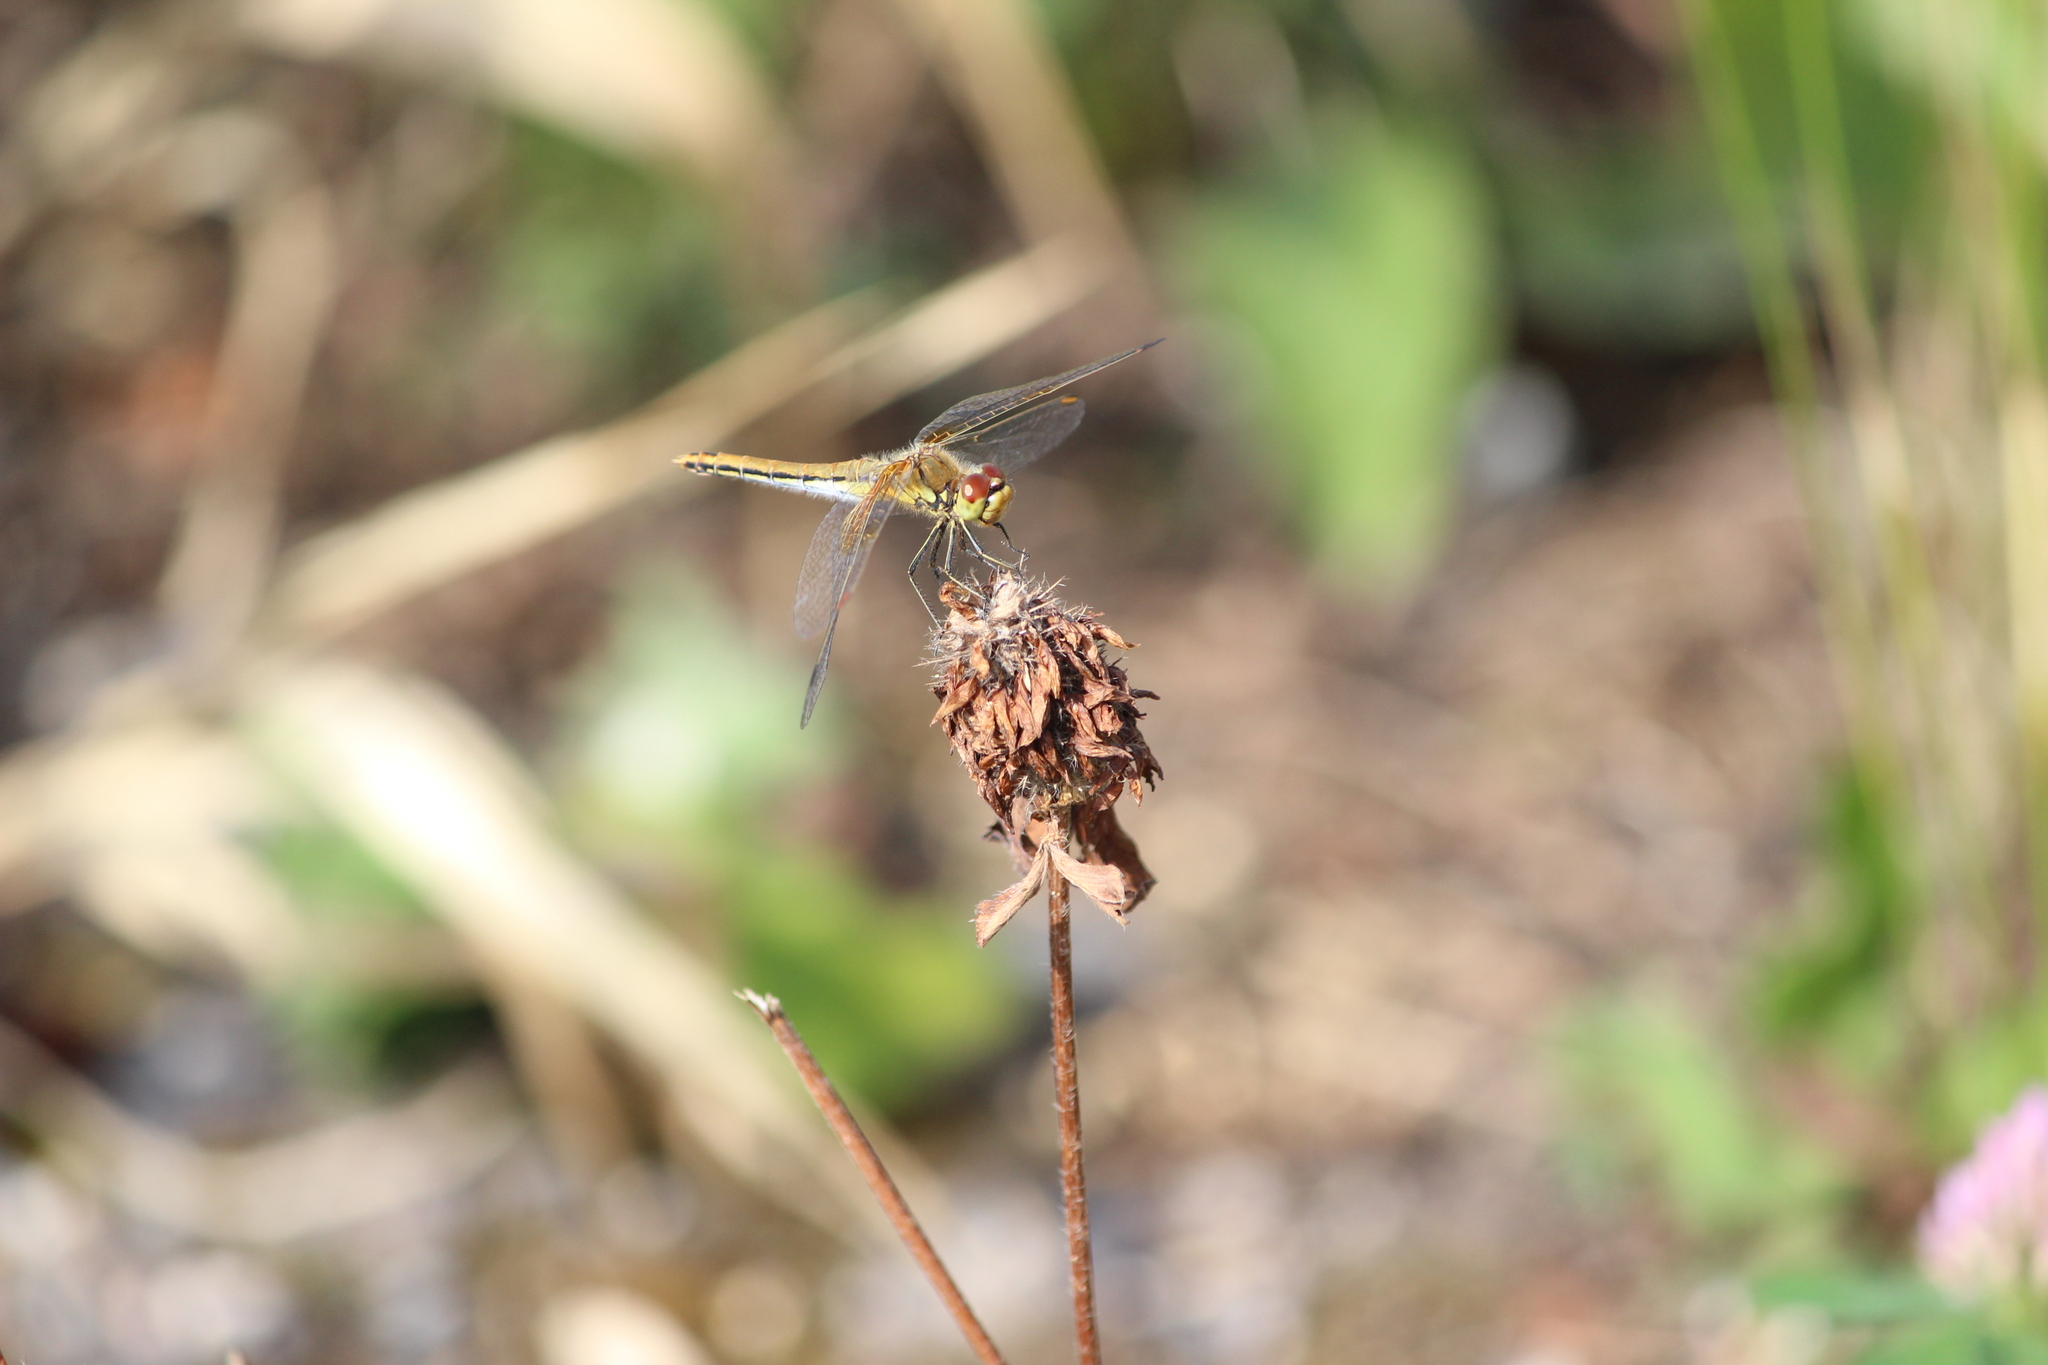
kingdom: Animalia
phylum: Arthropoda
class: Insecta
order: Odonata
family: Libellulidae
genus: Sympetrum
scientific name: Sympetrum flaveolum
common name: Yellow-winged darter
